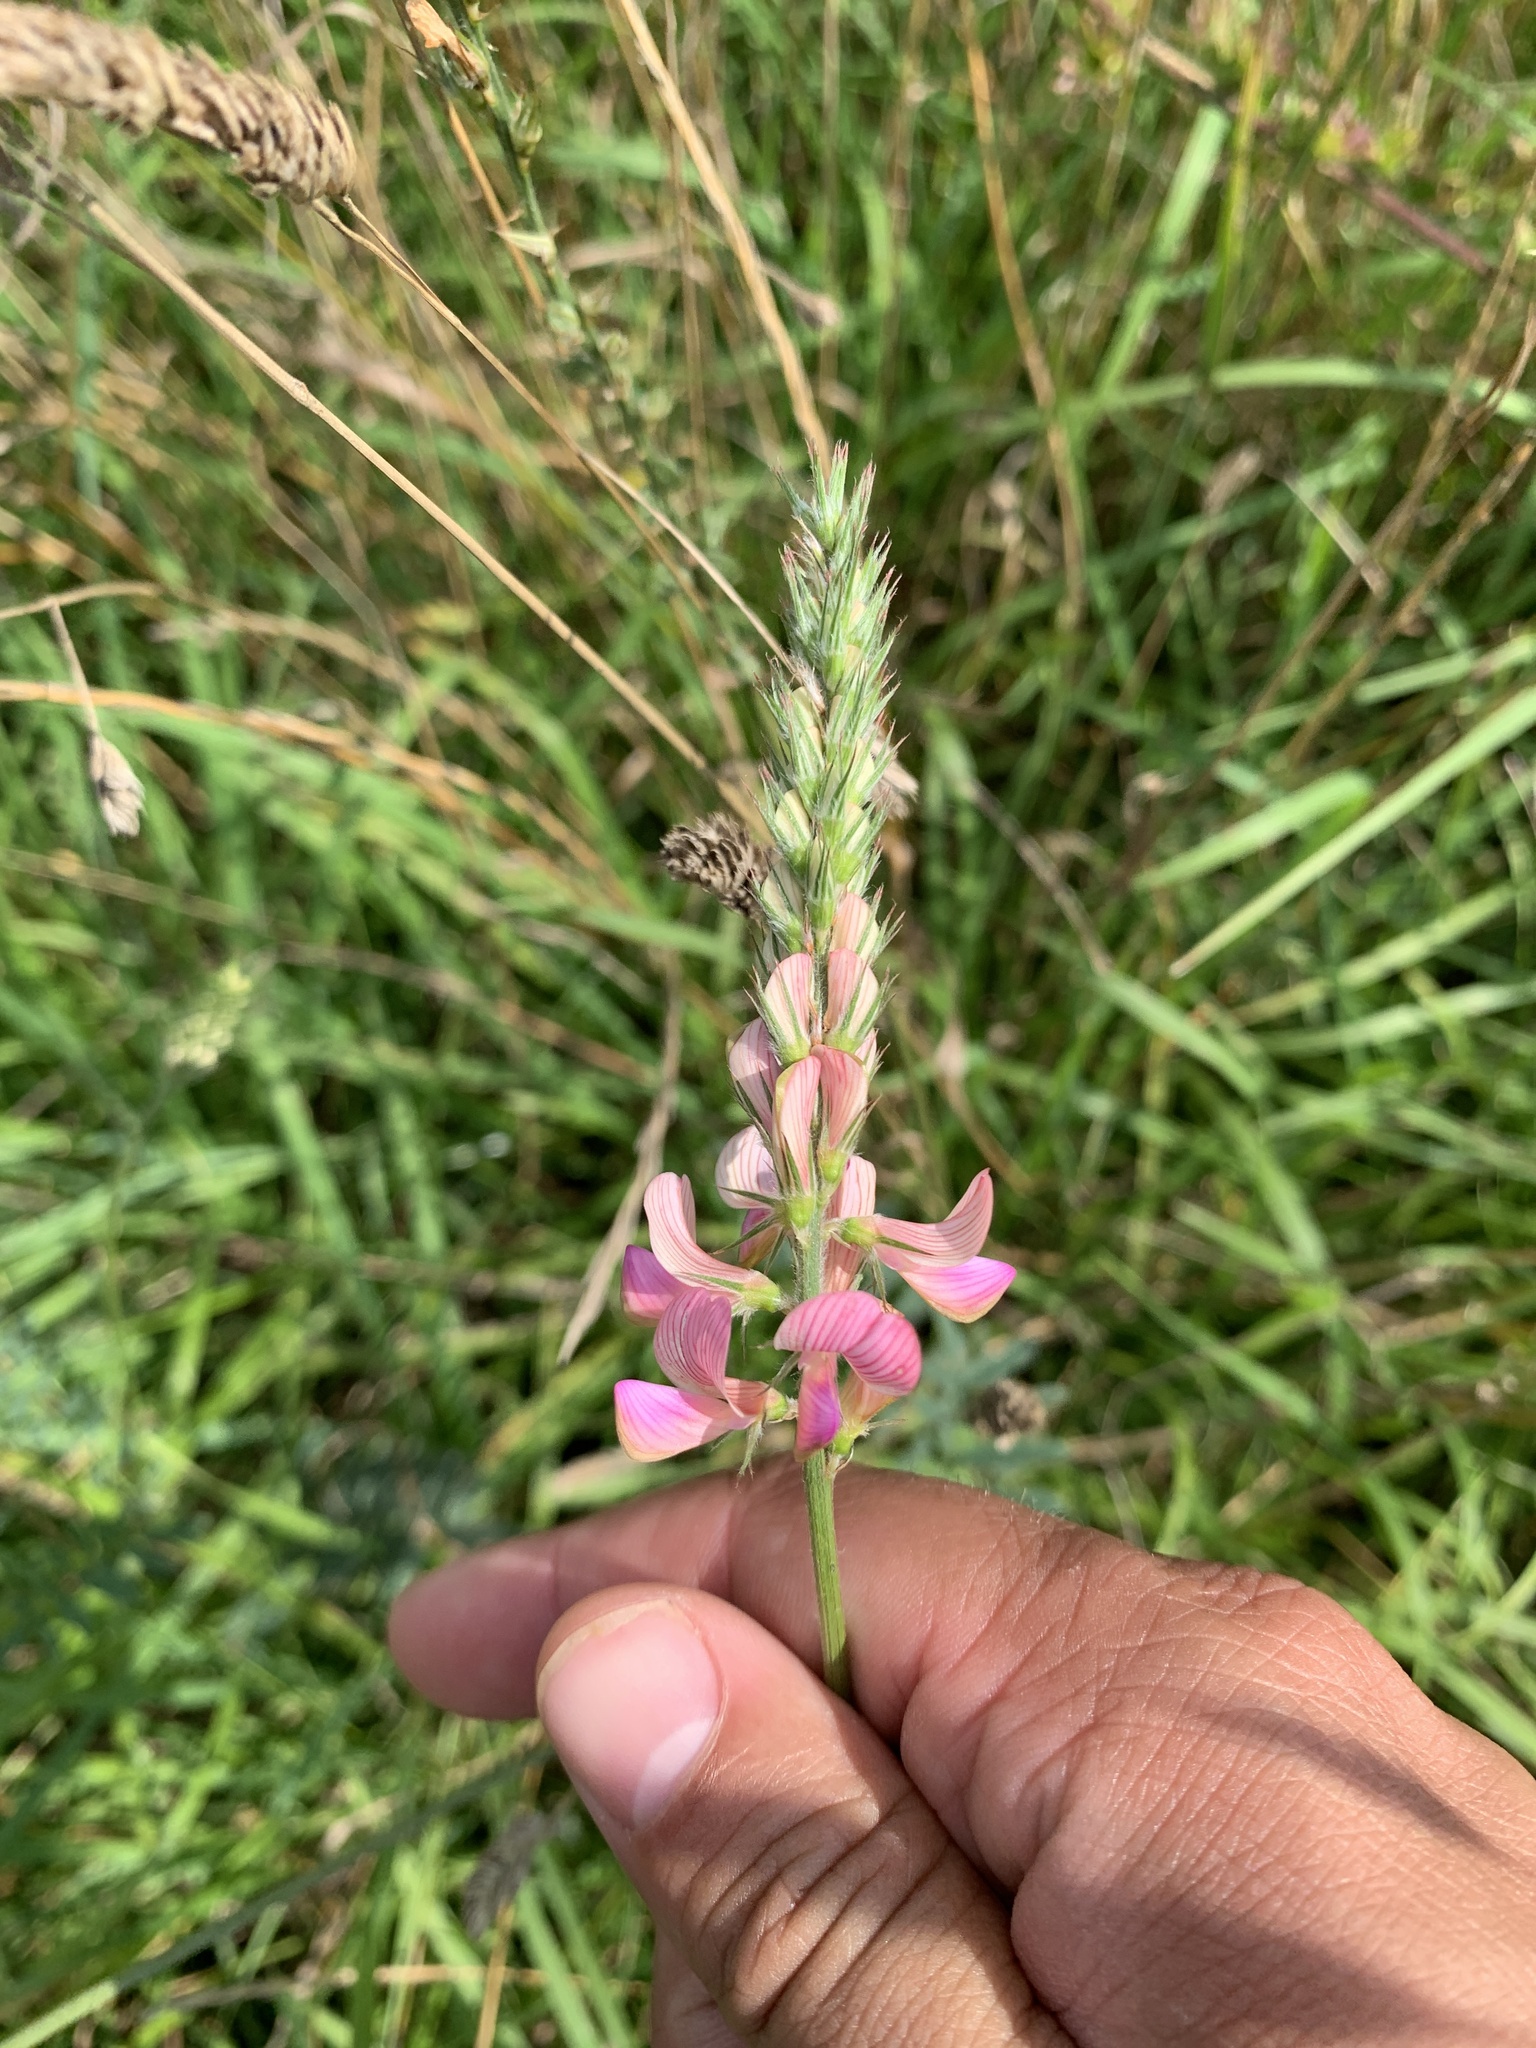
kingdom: Plantae
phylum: Tracheophyta
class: Magnoliopsida
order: Fabales
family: Fabaceae
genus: Onobrychis
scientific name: Onobrychis viciifolia
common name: Sainfoin
